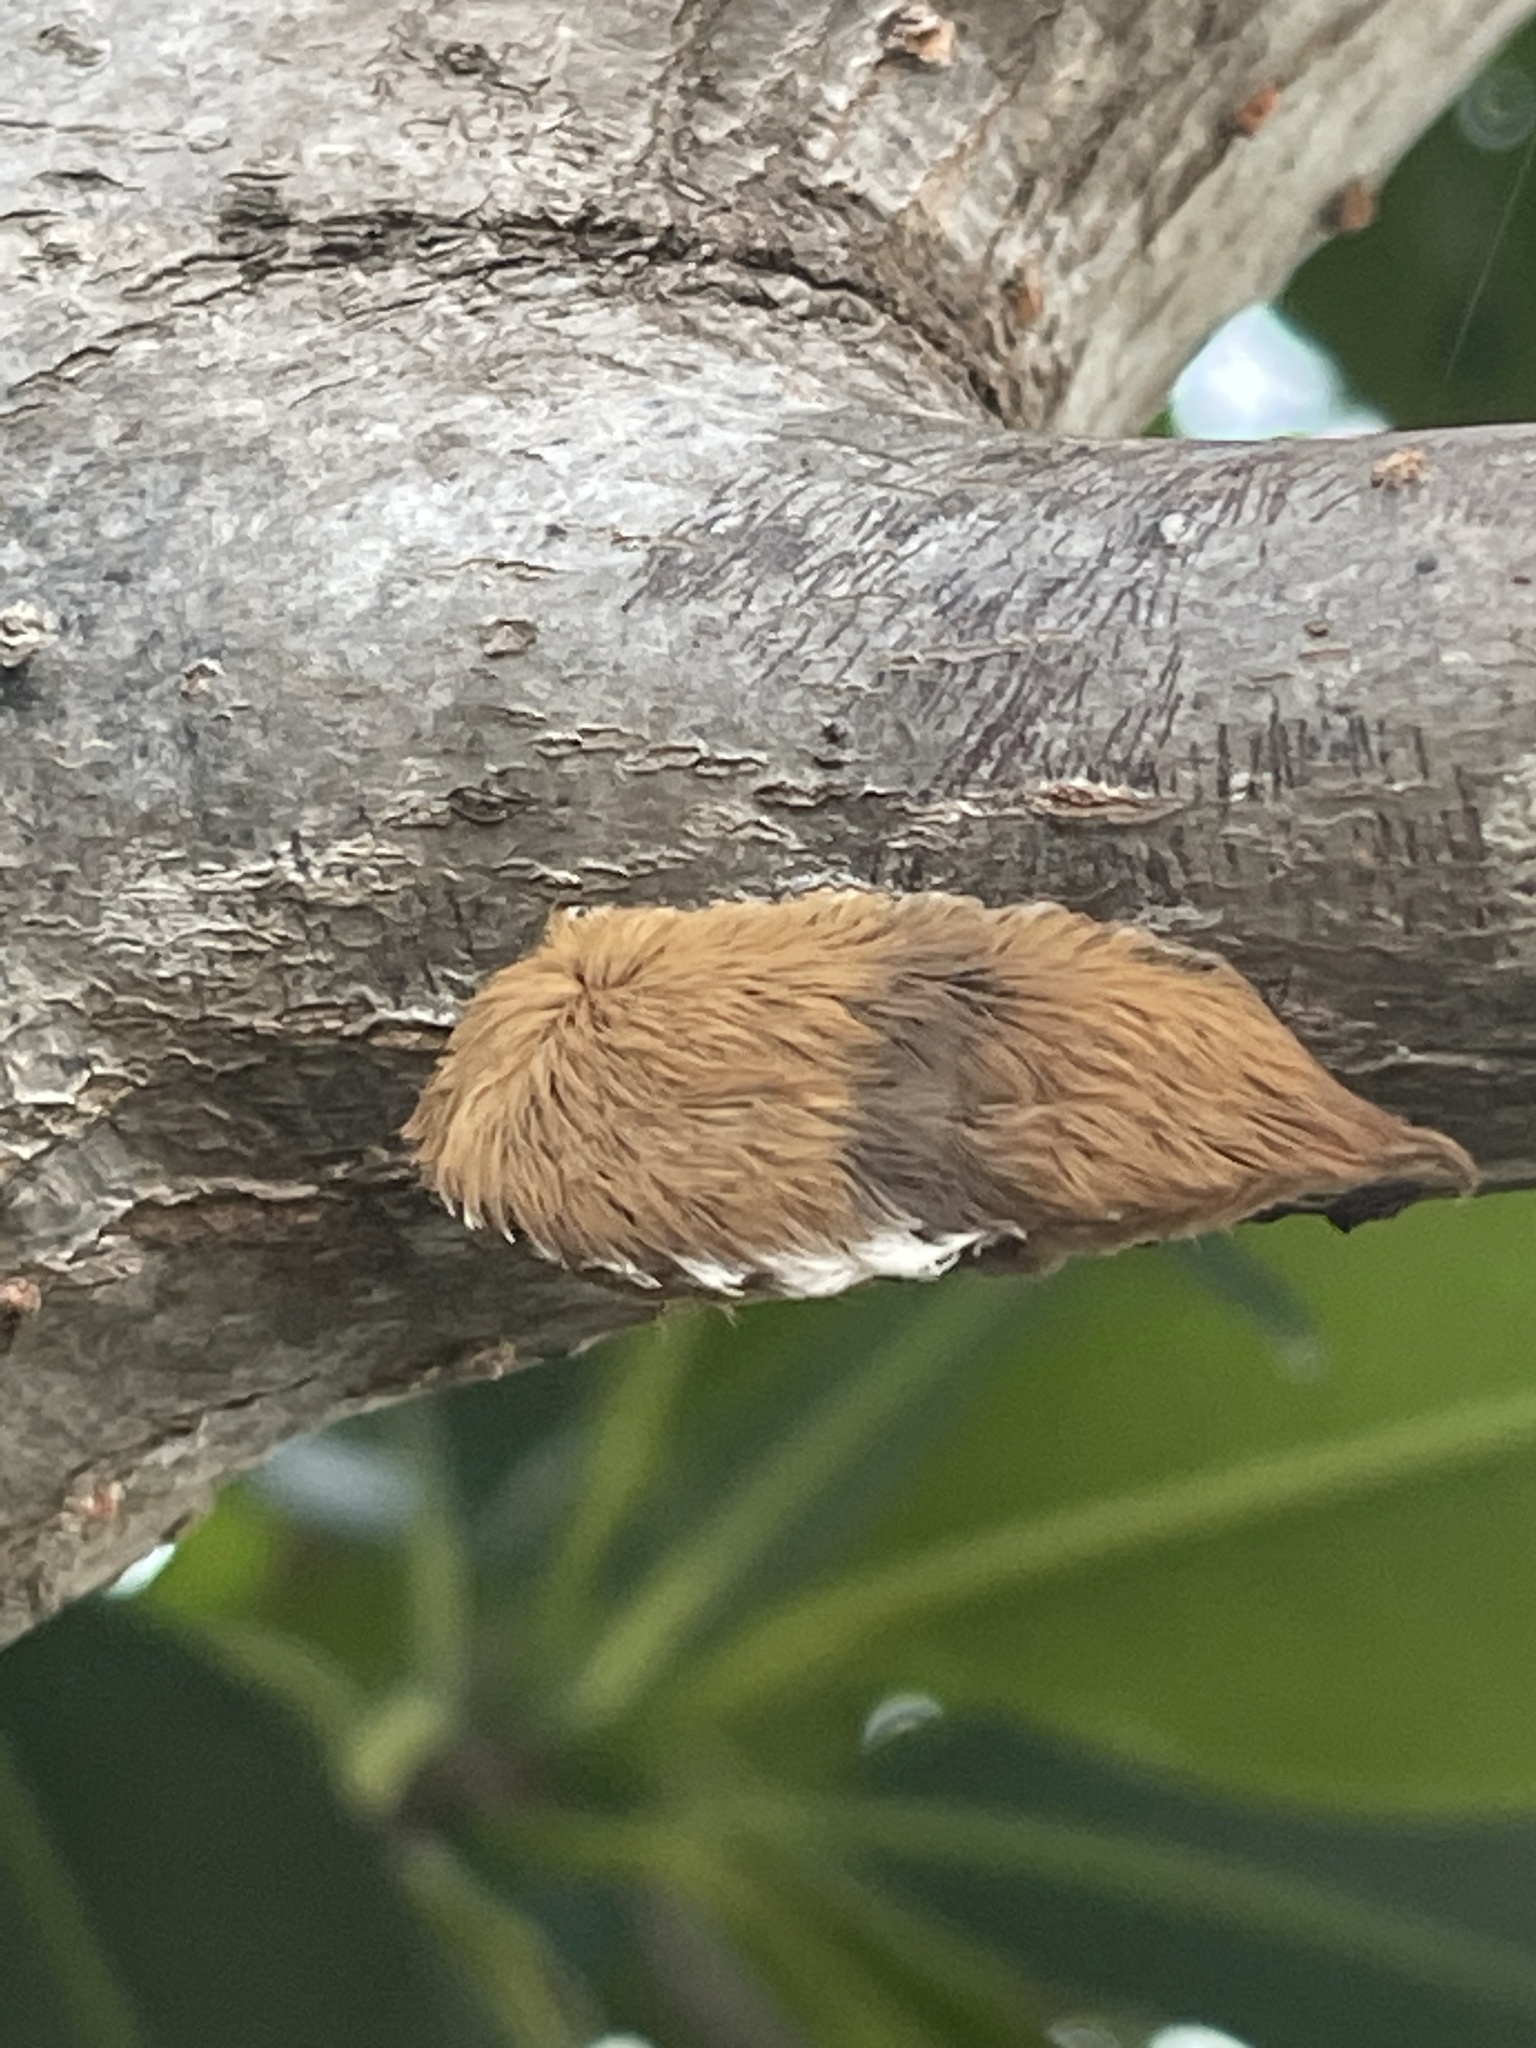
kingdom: Animalia
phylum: Arthropoda
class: Insecta
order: Lepidoptera
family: Megalopygidae
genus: Megalopyge
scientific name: Megalopyge opercularis
